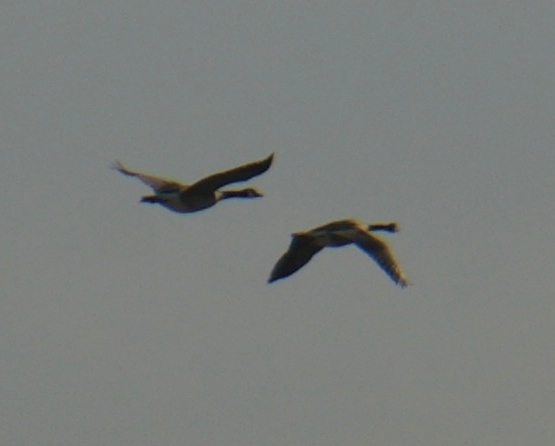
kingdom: Animalia
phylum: Chordata
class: Aves
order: Anseriformes
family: Anatidae
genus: Branta
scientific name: Branta canadensis
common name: Canada goose
